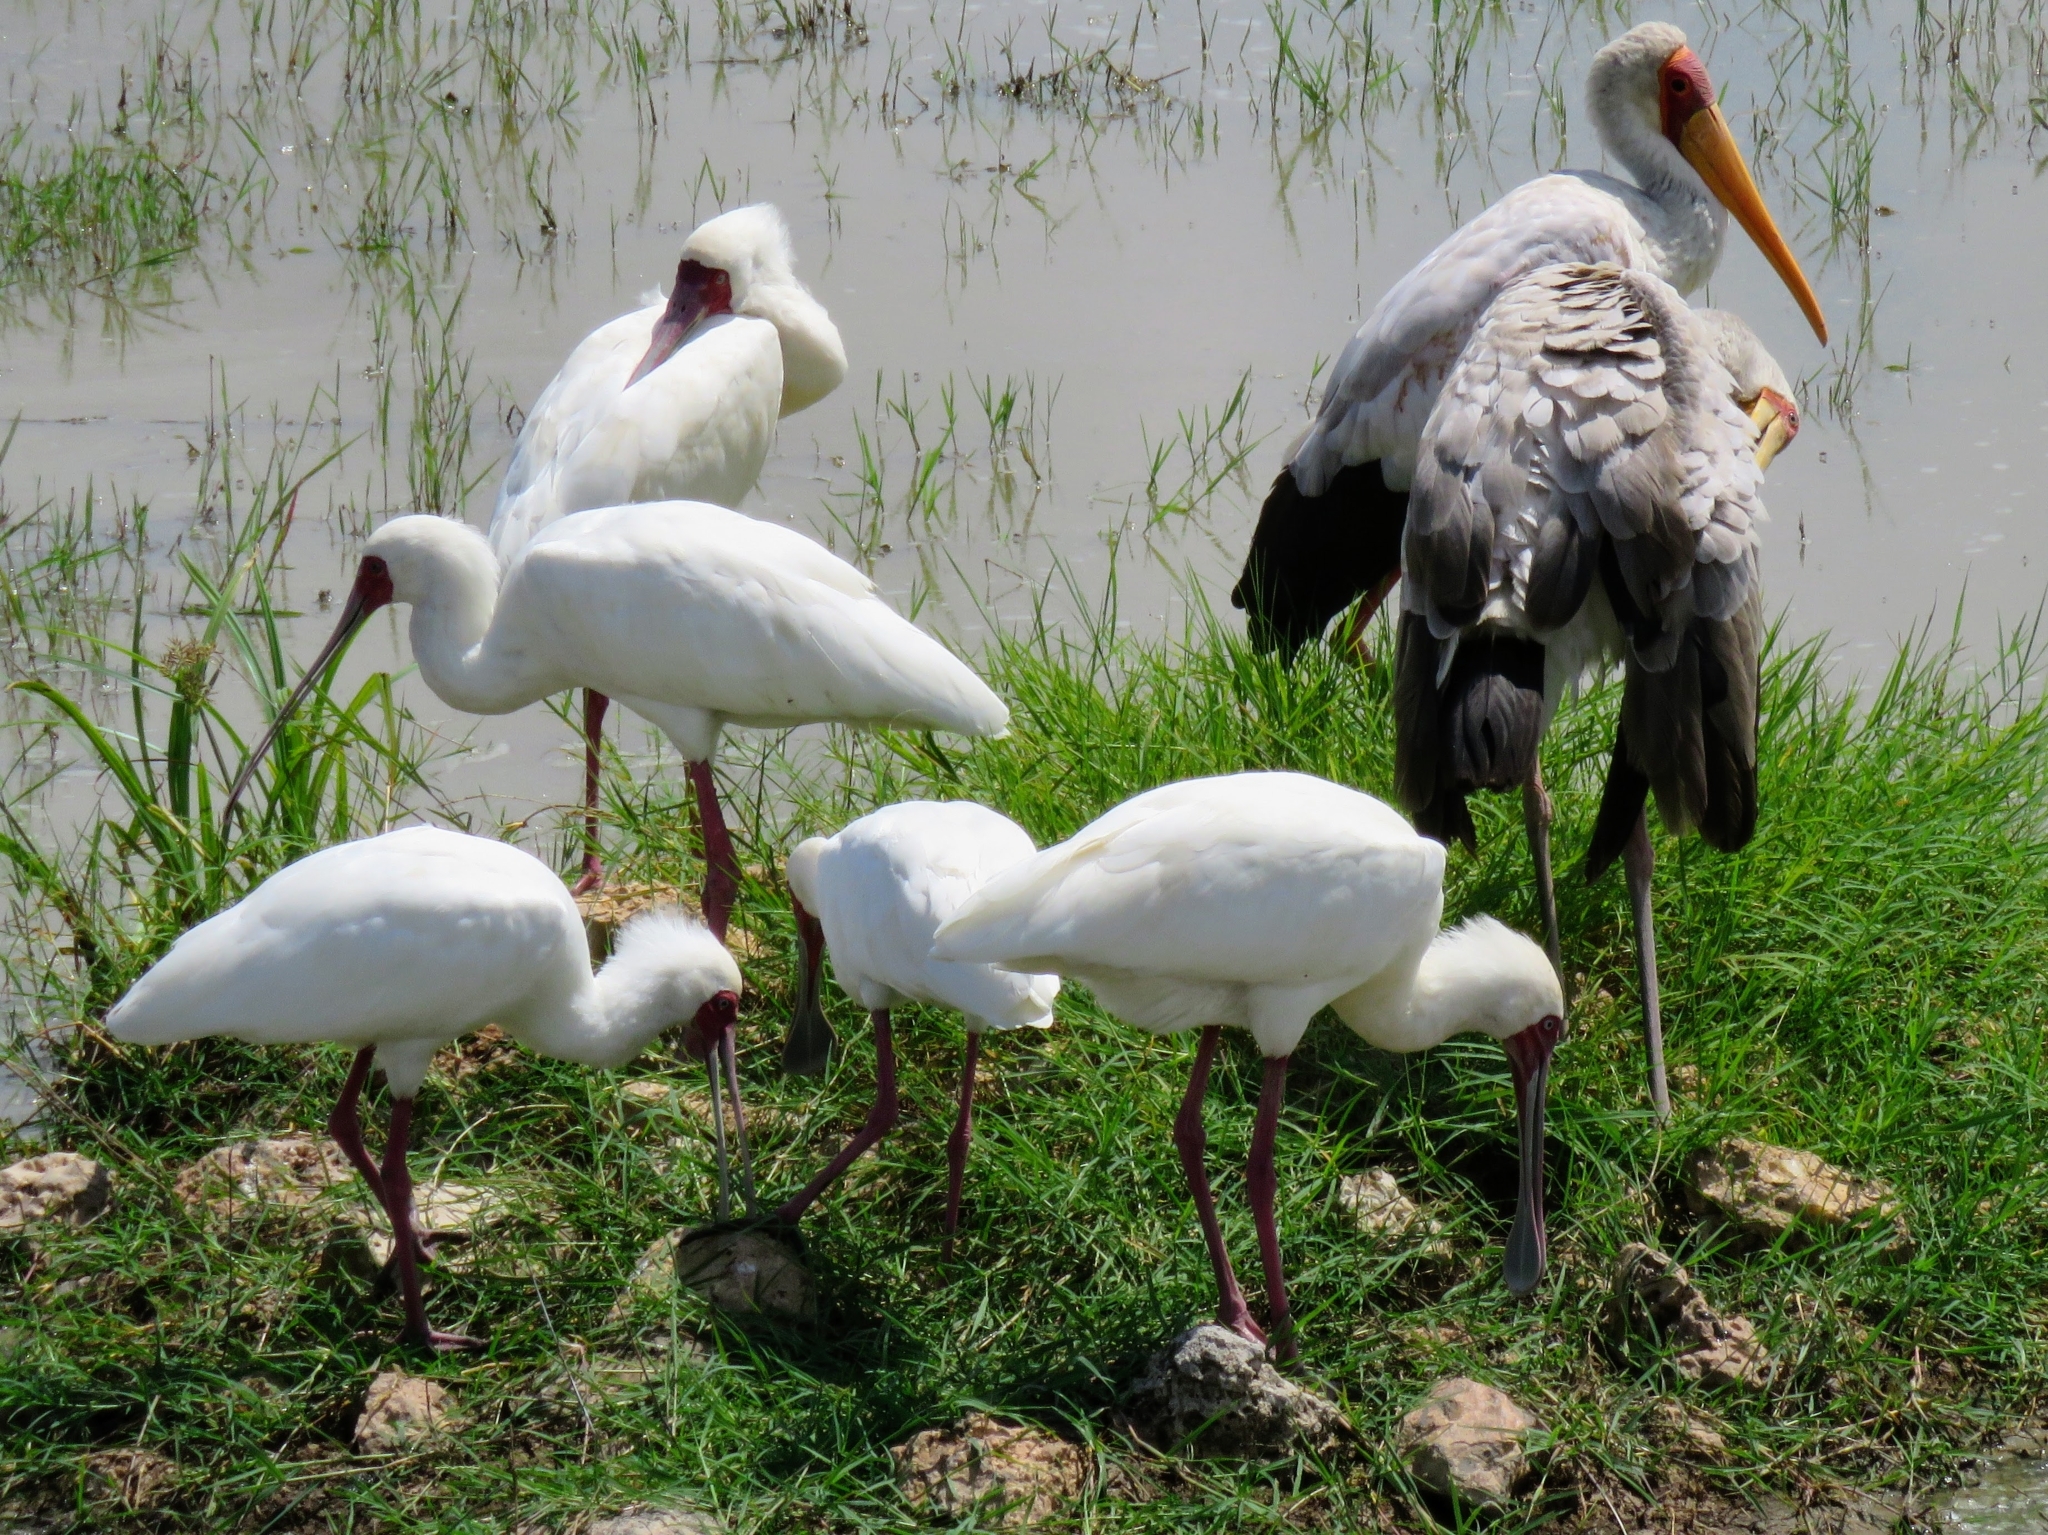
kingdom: Animalia
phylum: Chordata
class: Aves
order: Pelecaniformes
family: Threskiornithidae
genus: Platalea
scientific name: Platalea alba
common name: African spoonbill
